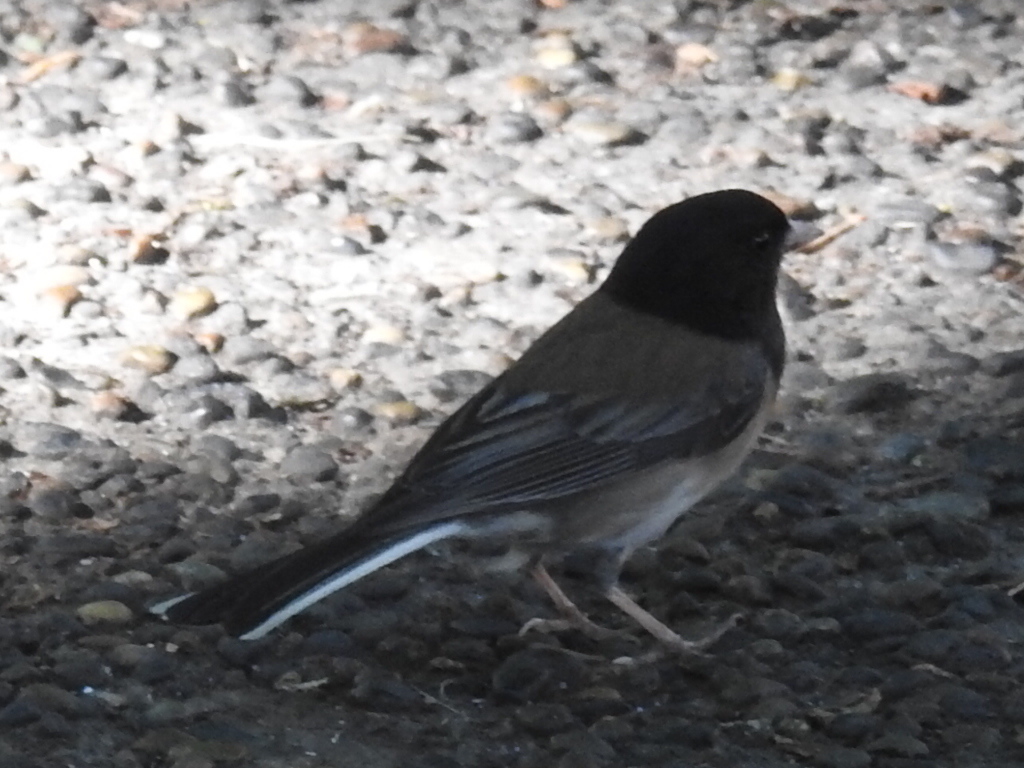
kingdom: Animalia
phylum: Chordata
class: Aves
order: Passeriformes
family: Passerellidae
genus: Junco
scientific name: Junco hyemalis
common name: Dark-eyed junco
